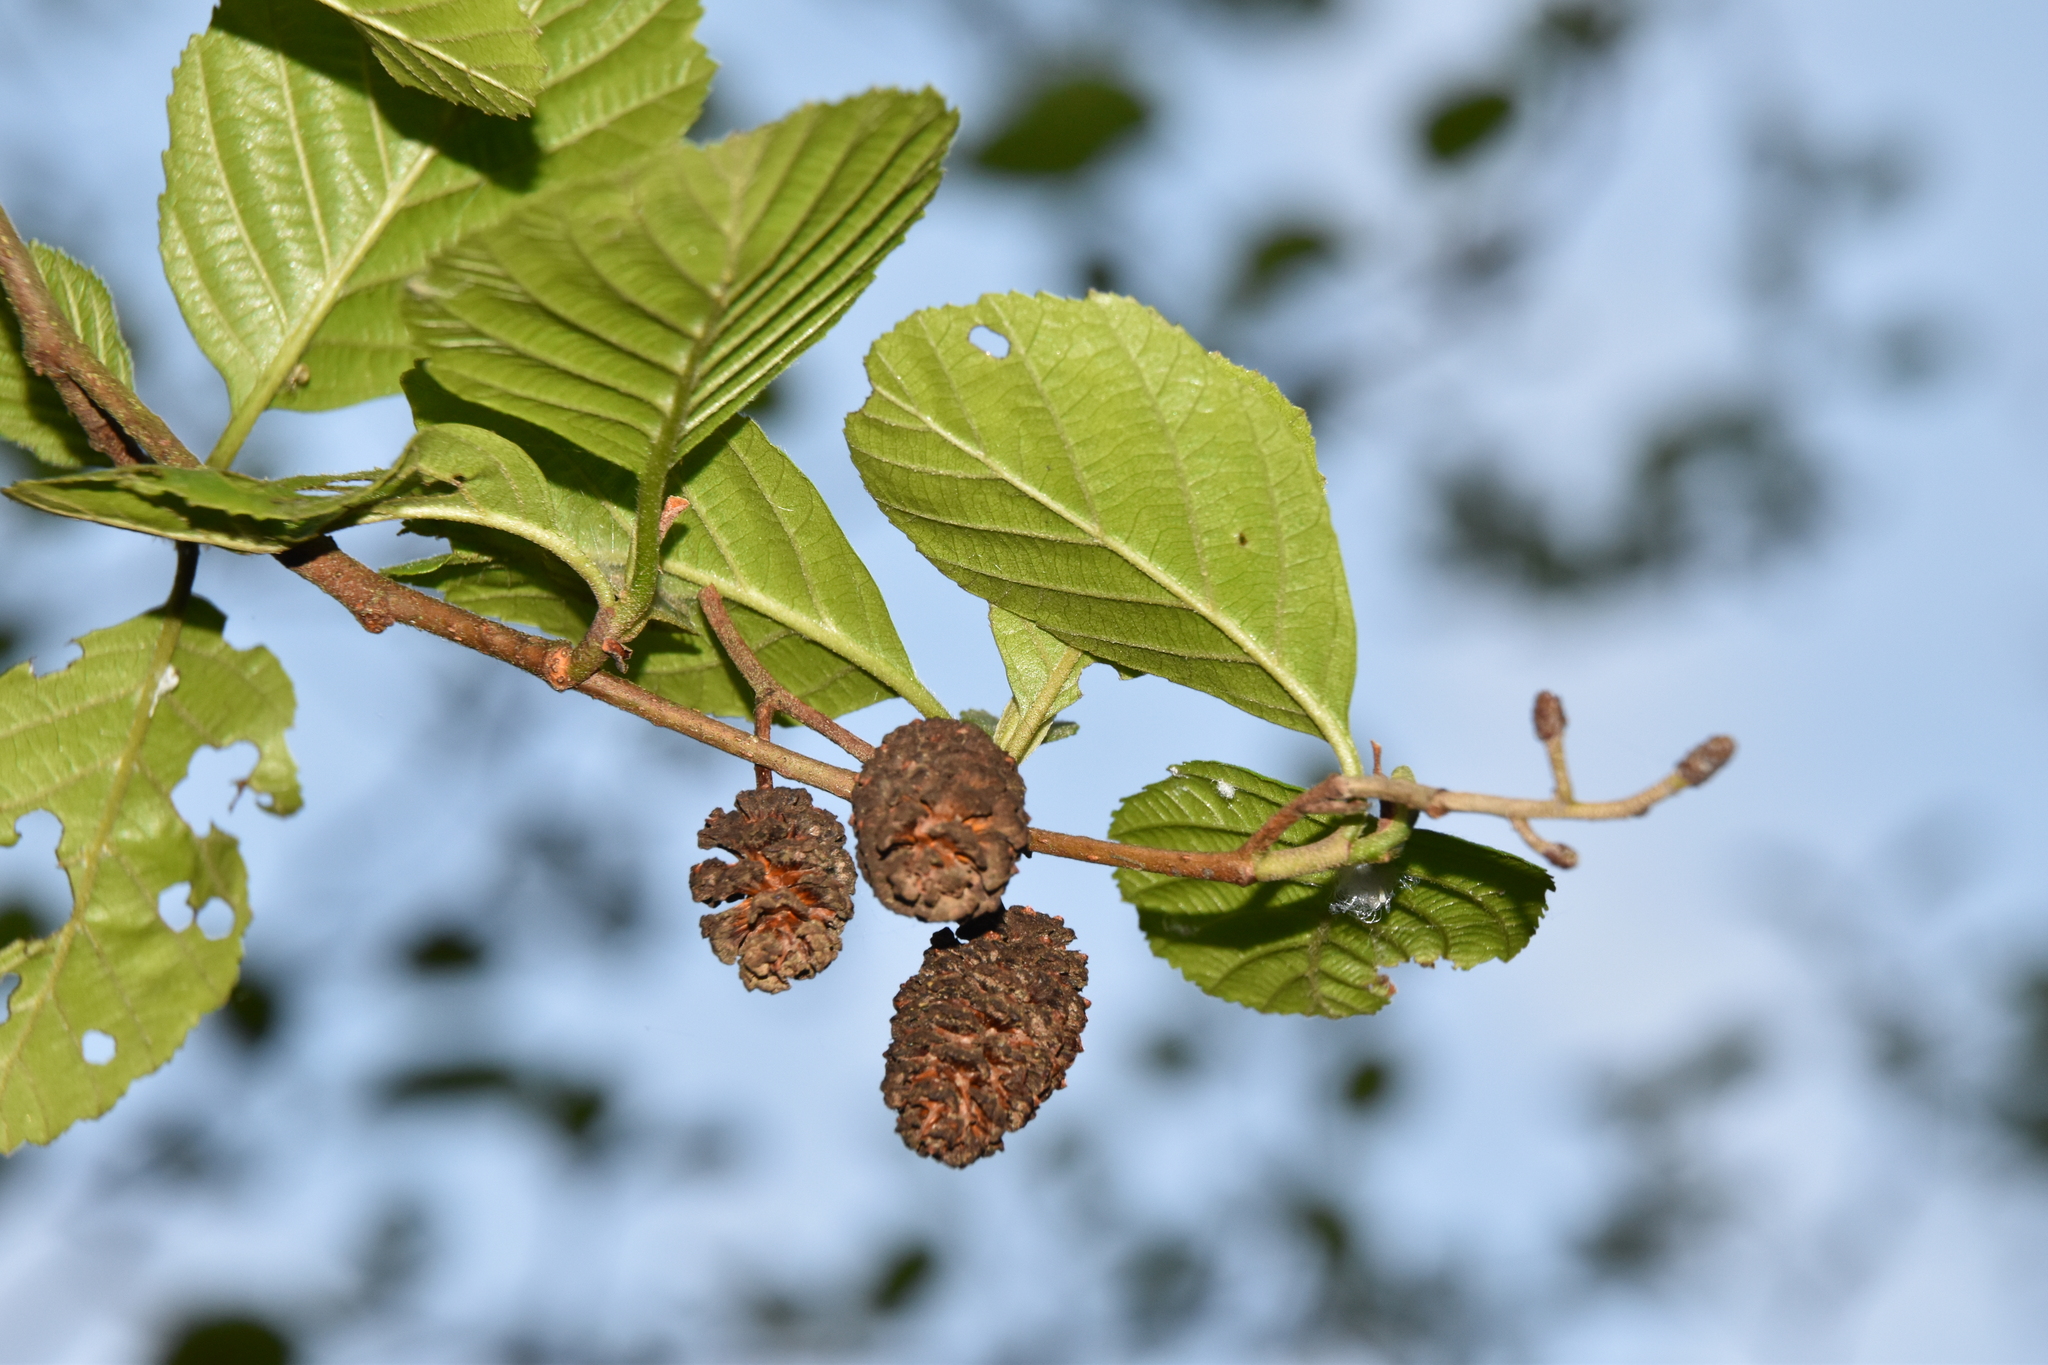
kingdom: Plantae
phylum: Tracheophyta
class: Magnoliopsida
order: Fagales
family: Betulaceae
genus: Alnus
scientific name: Alnus glutinosa
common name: Black alder
